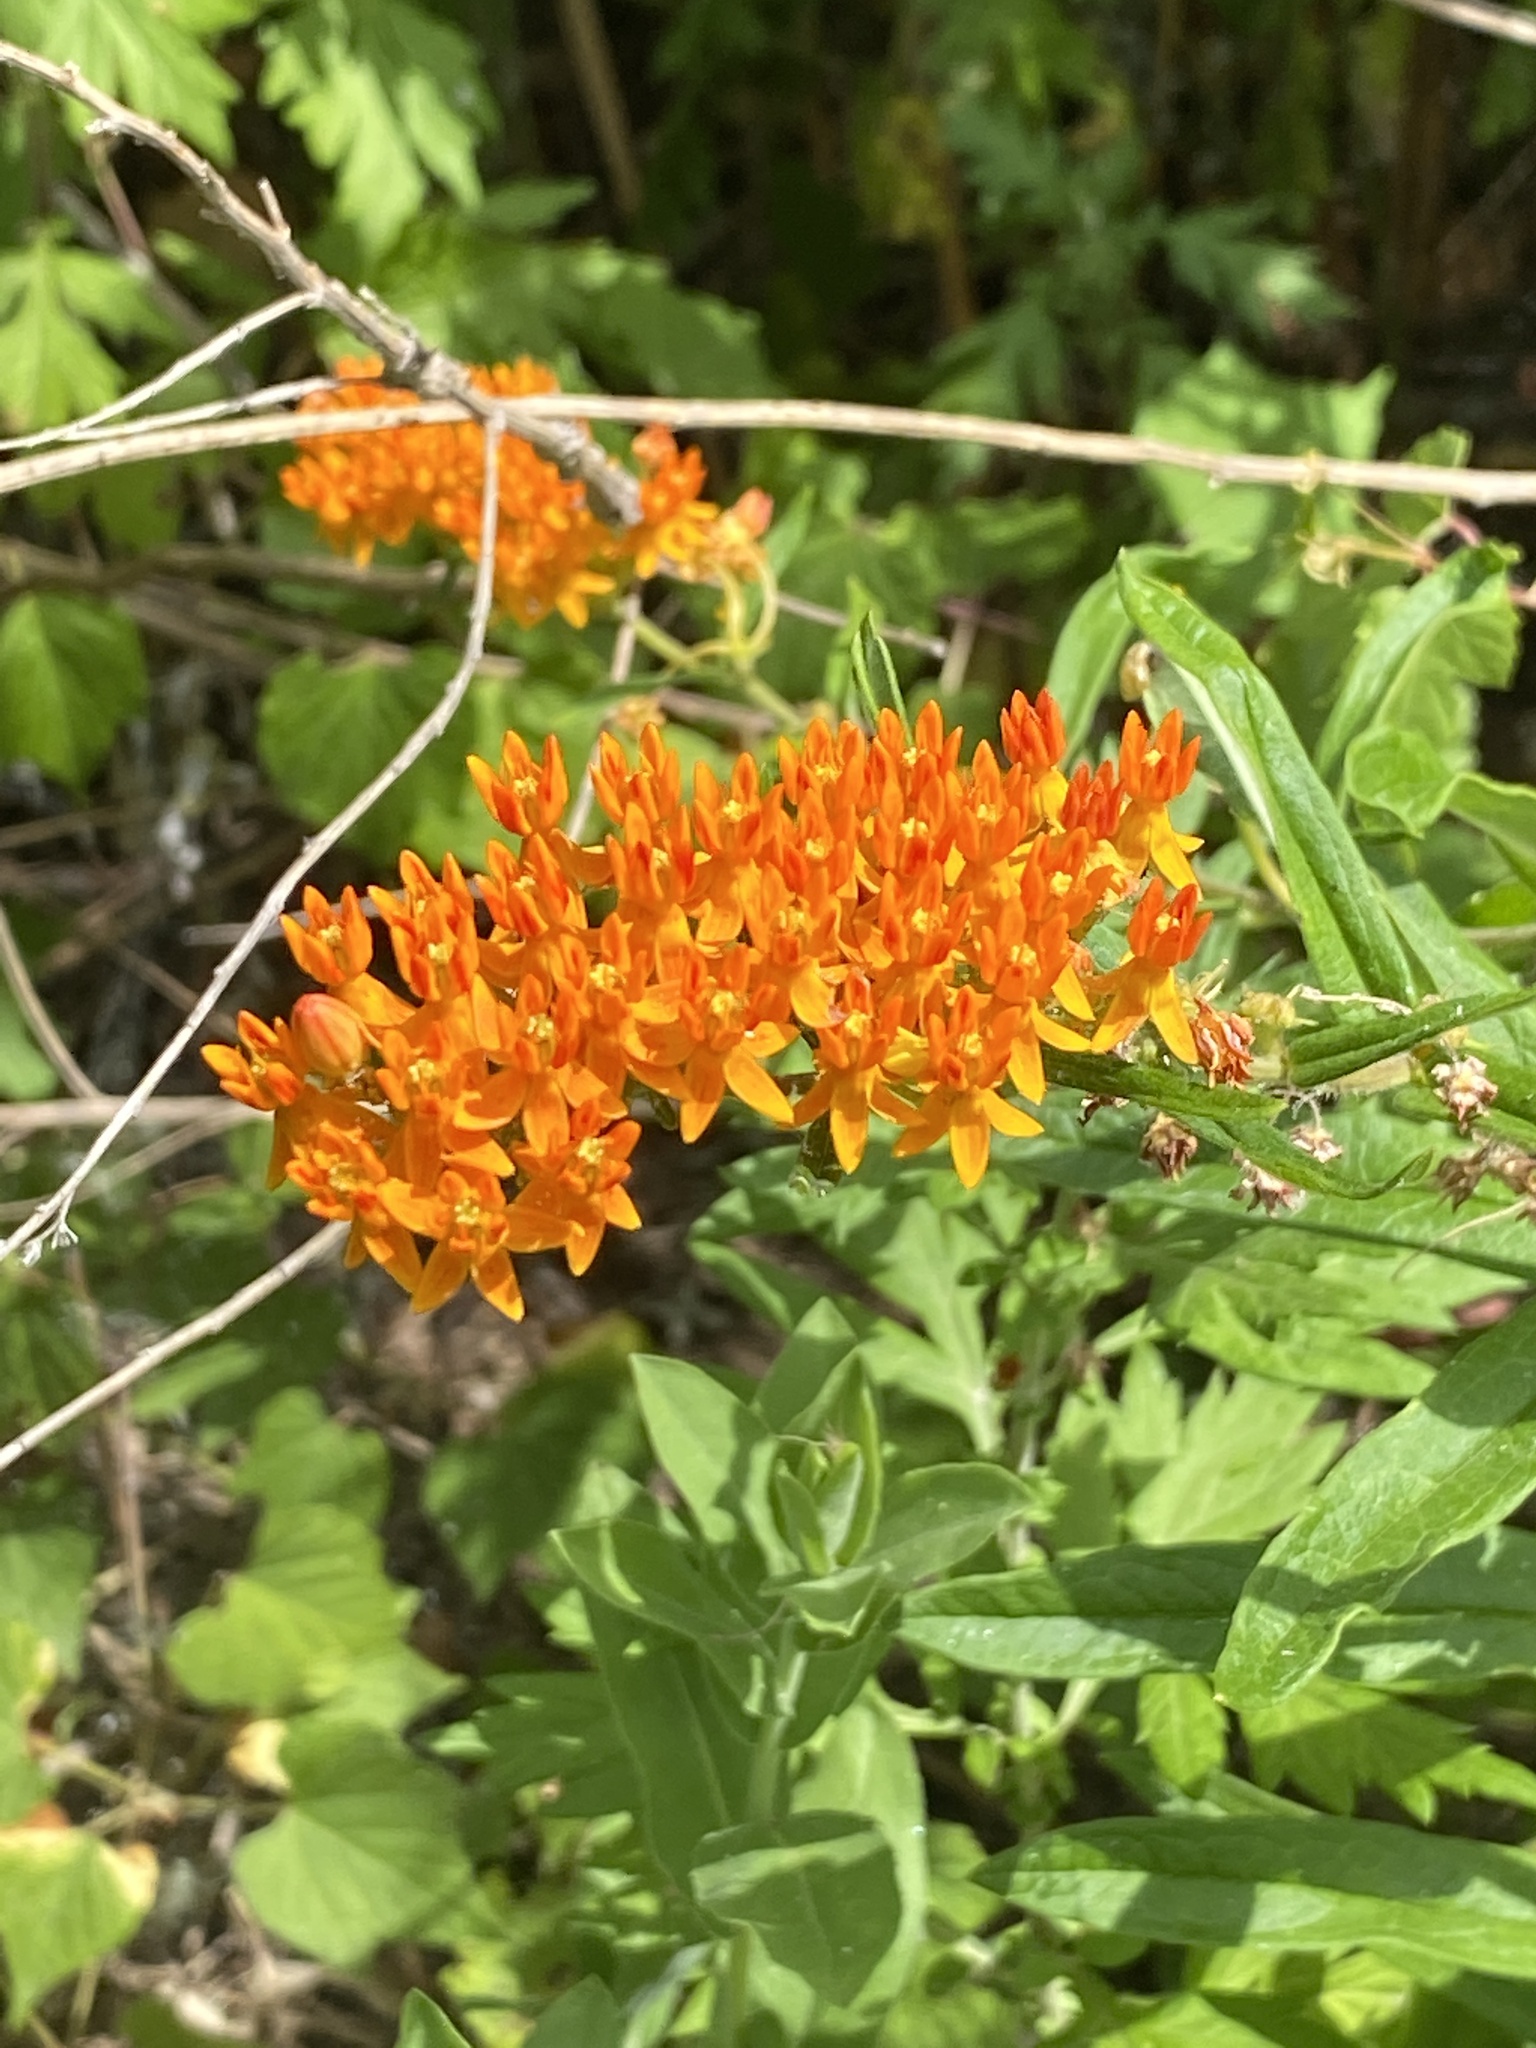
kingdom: Plantae
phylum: Tracheophyta
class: Magnoliopsida
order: Gentianales
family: Apocynaceae
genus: Asclepias
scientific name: Asclepias tuberosa
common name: Butterfly milkweed
